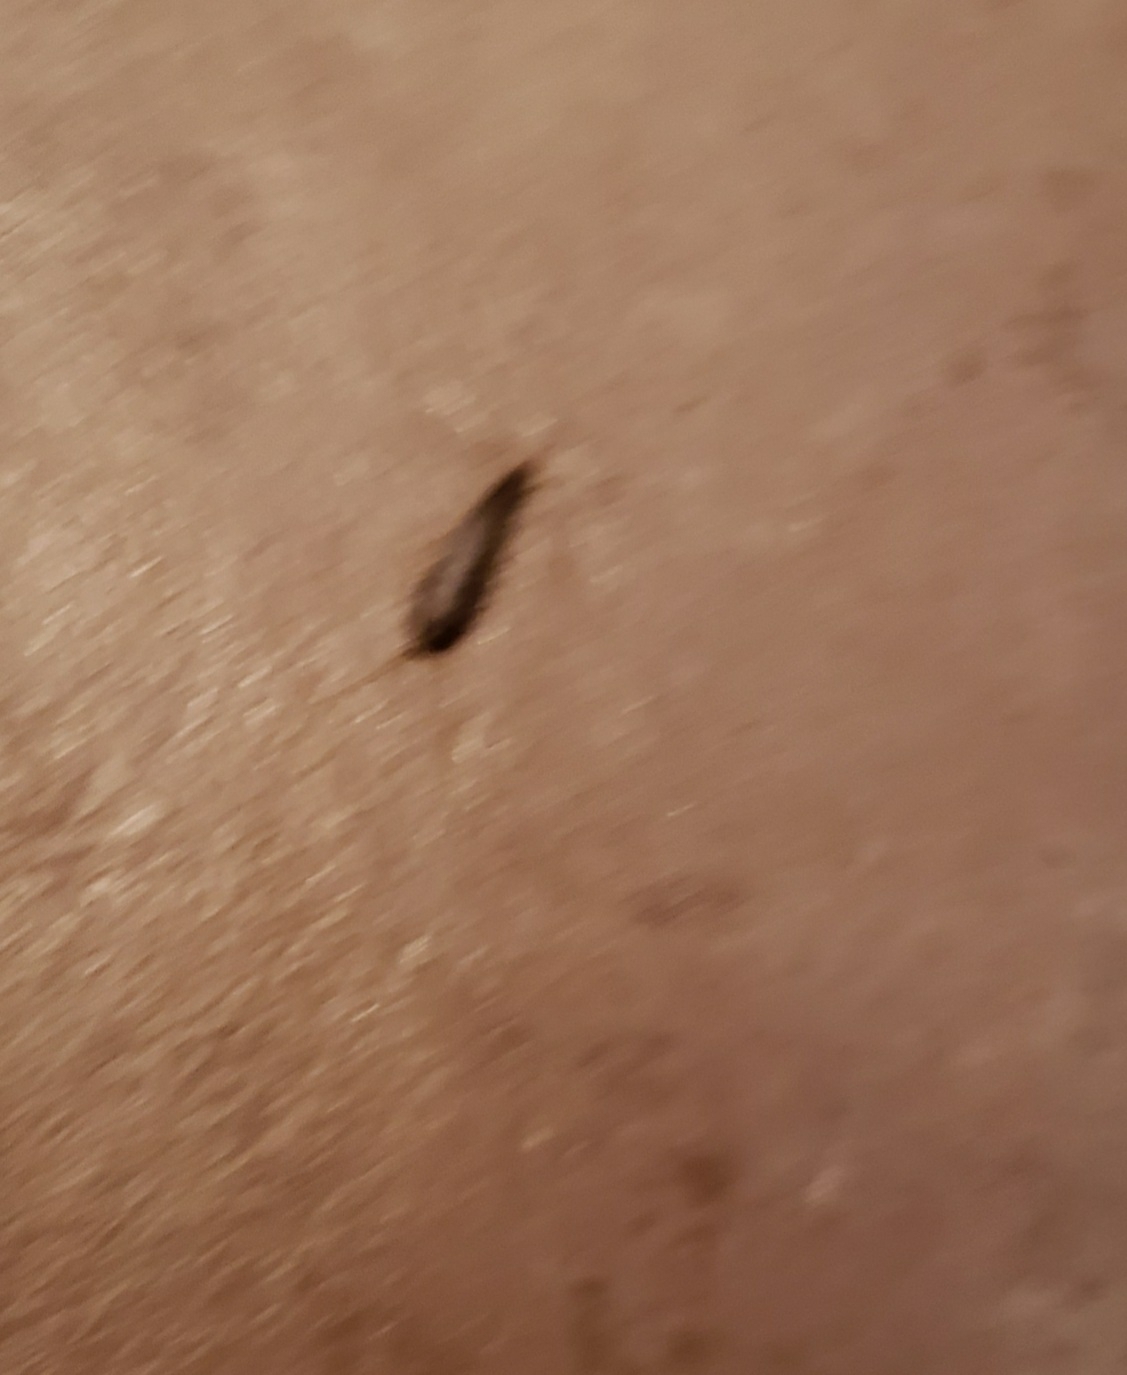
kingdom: Animalia
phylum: Arthropoda
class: Insecta
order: Zygentoma
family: Lepismatidae
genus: Lepisma
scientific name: Lepisma saccharinum
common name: Silverfish
